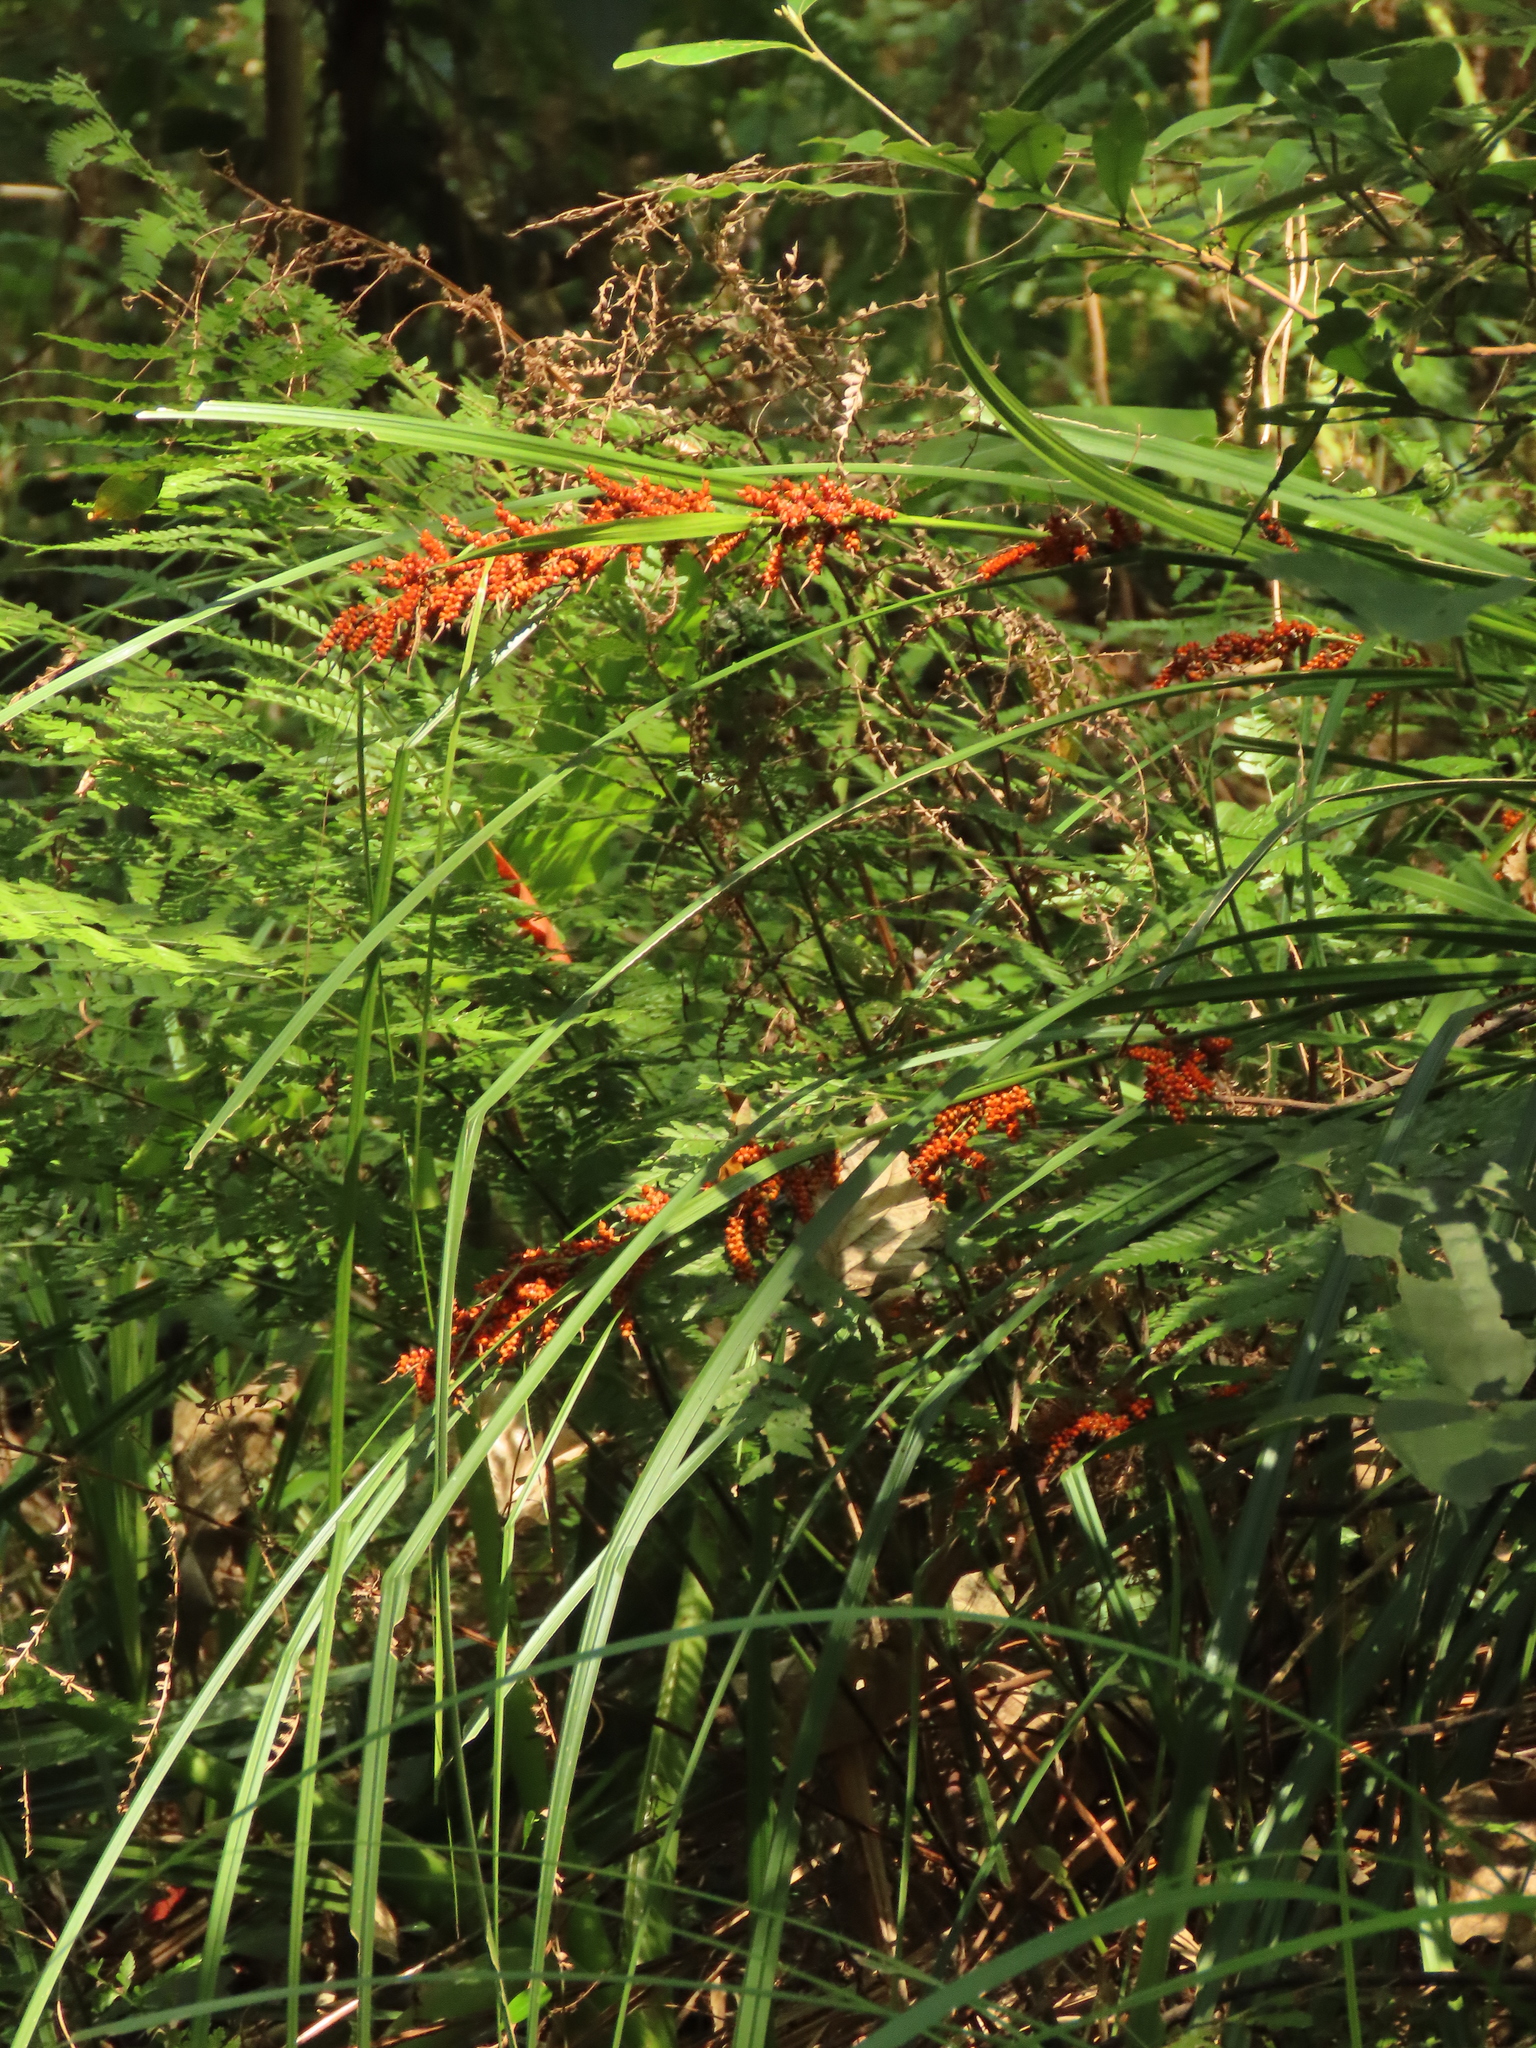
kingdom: Plantae
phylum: Tracheophyta
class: Liliopsida
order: Poales
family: Cyperaceae
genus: Carex
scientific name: Carex baccans
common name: Crimson seeded sedge
